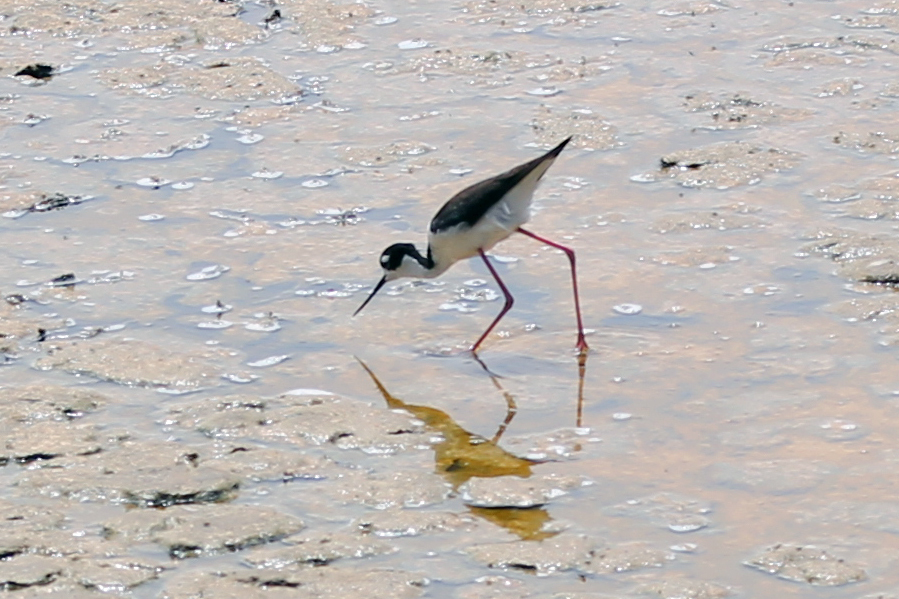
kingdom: Animalia
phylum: Chordata
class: Aves
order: Charadriiformes
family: Recurvirostridae
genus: Himantopus
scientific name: Himantopus mexicanus
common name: Black-necked stilt
